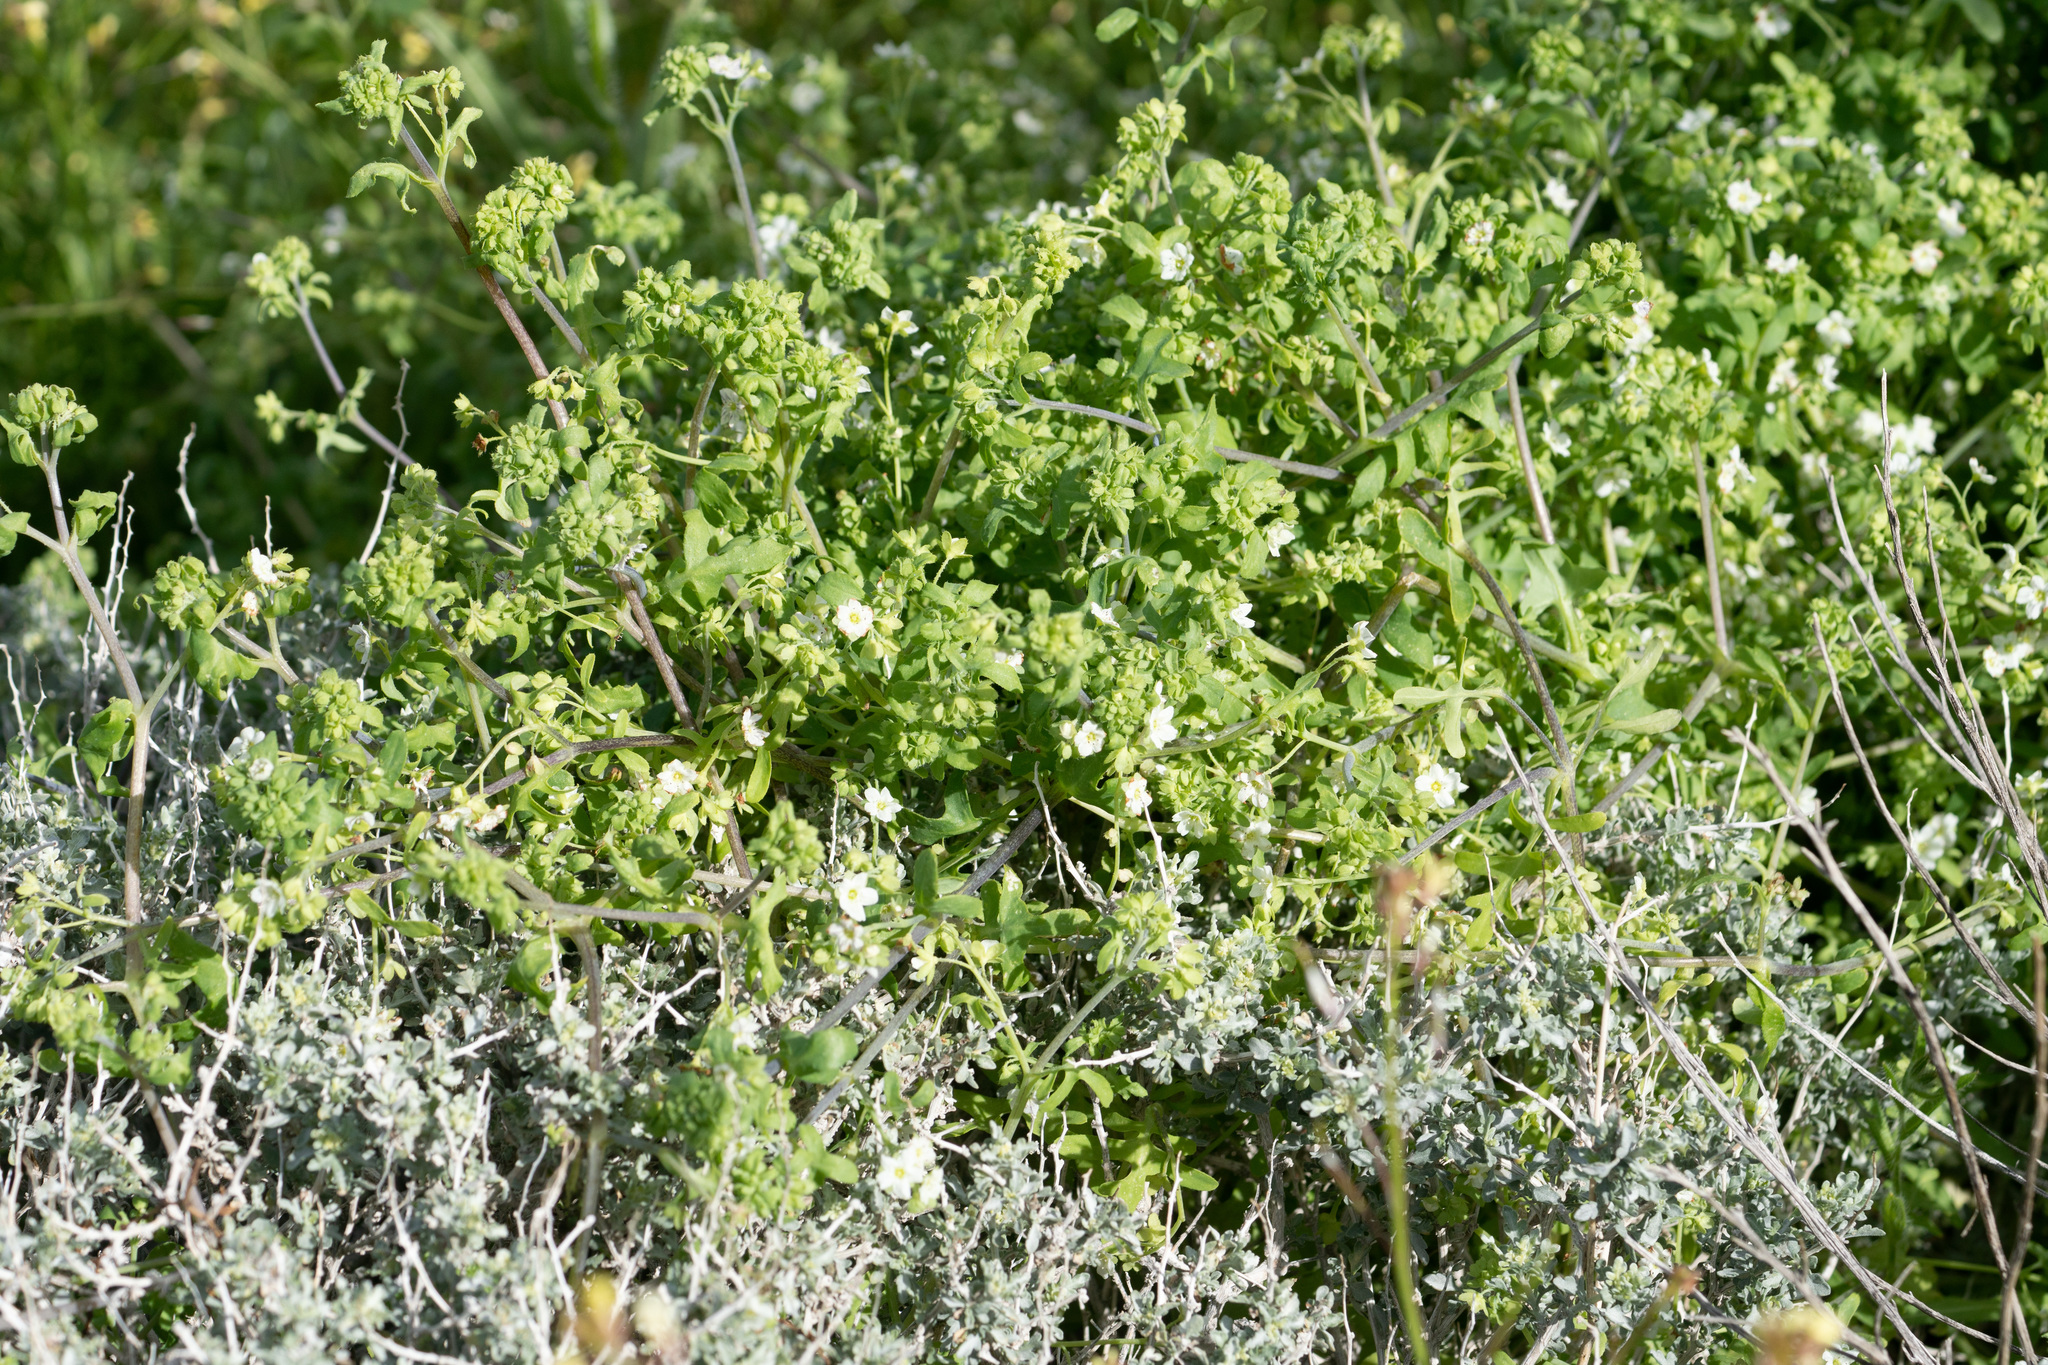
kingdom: Plantae
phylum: Tracheophyta
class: Magnoliopsida
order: Boraginales
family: Hydrophyllaceae
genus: Pholistoma
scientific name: Pholistoma membranaceum
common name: White fiesta-flower
